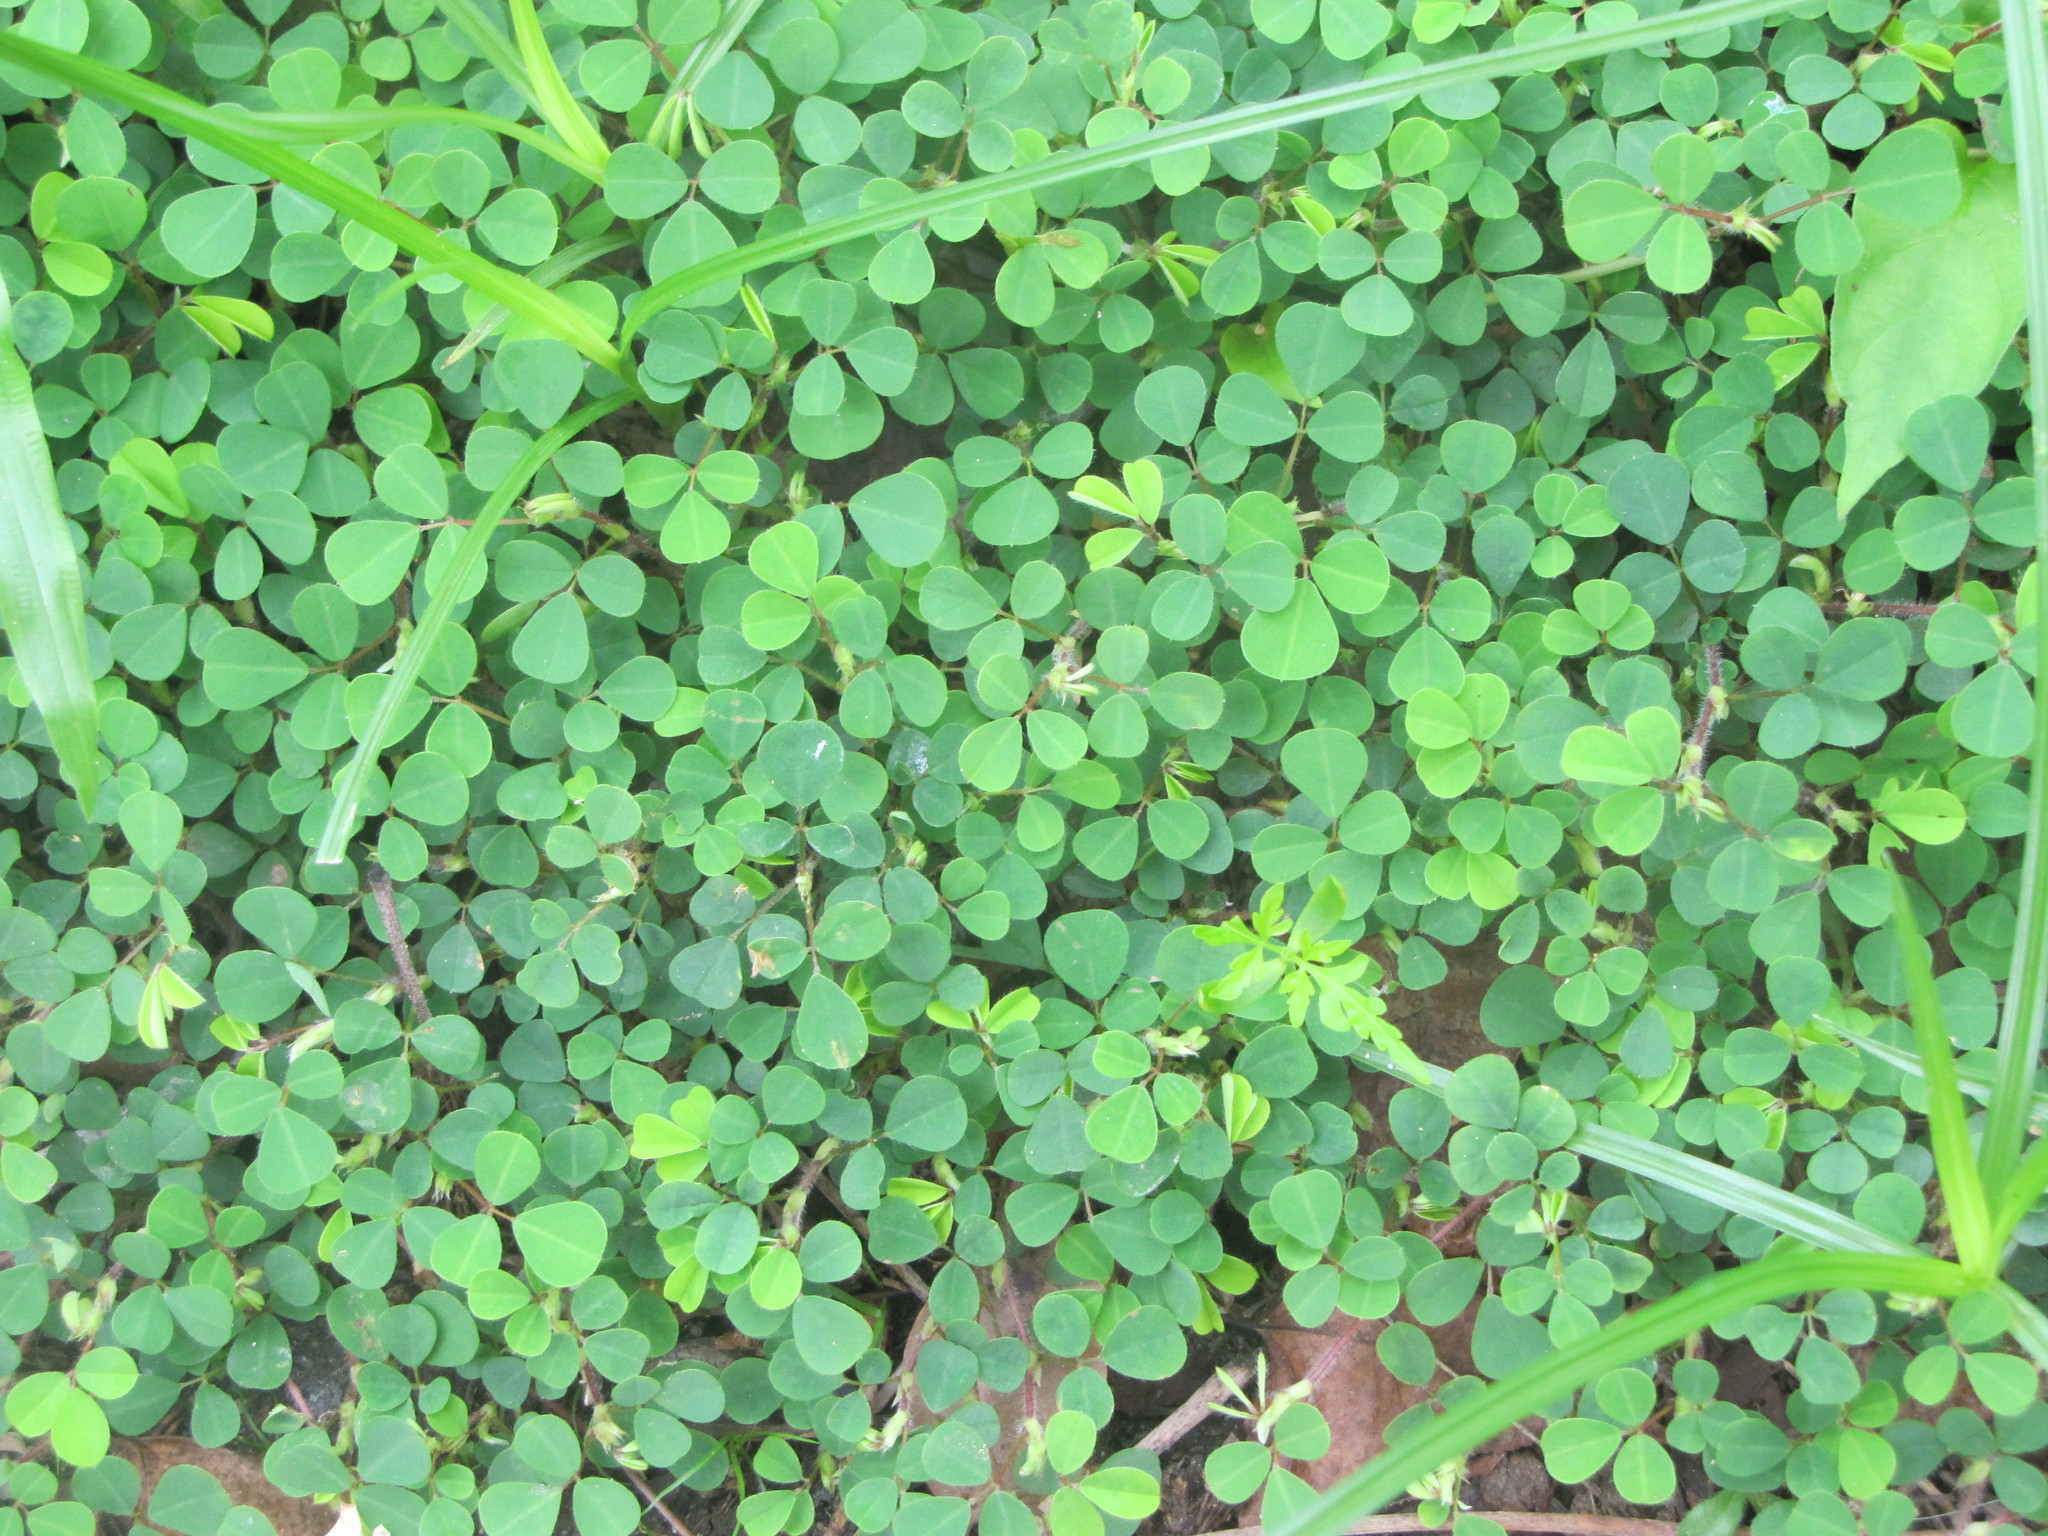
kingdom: Plantae
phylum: Tracheophyta
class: Magnoliopsida
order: Fabales
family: Fabaceae
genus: Grona
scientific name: Grona triflora
